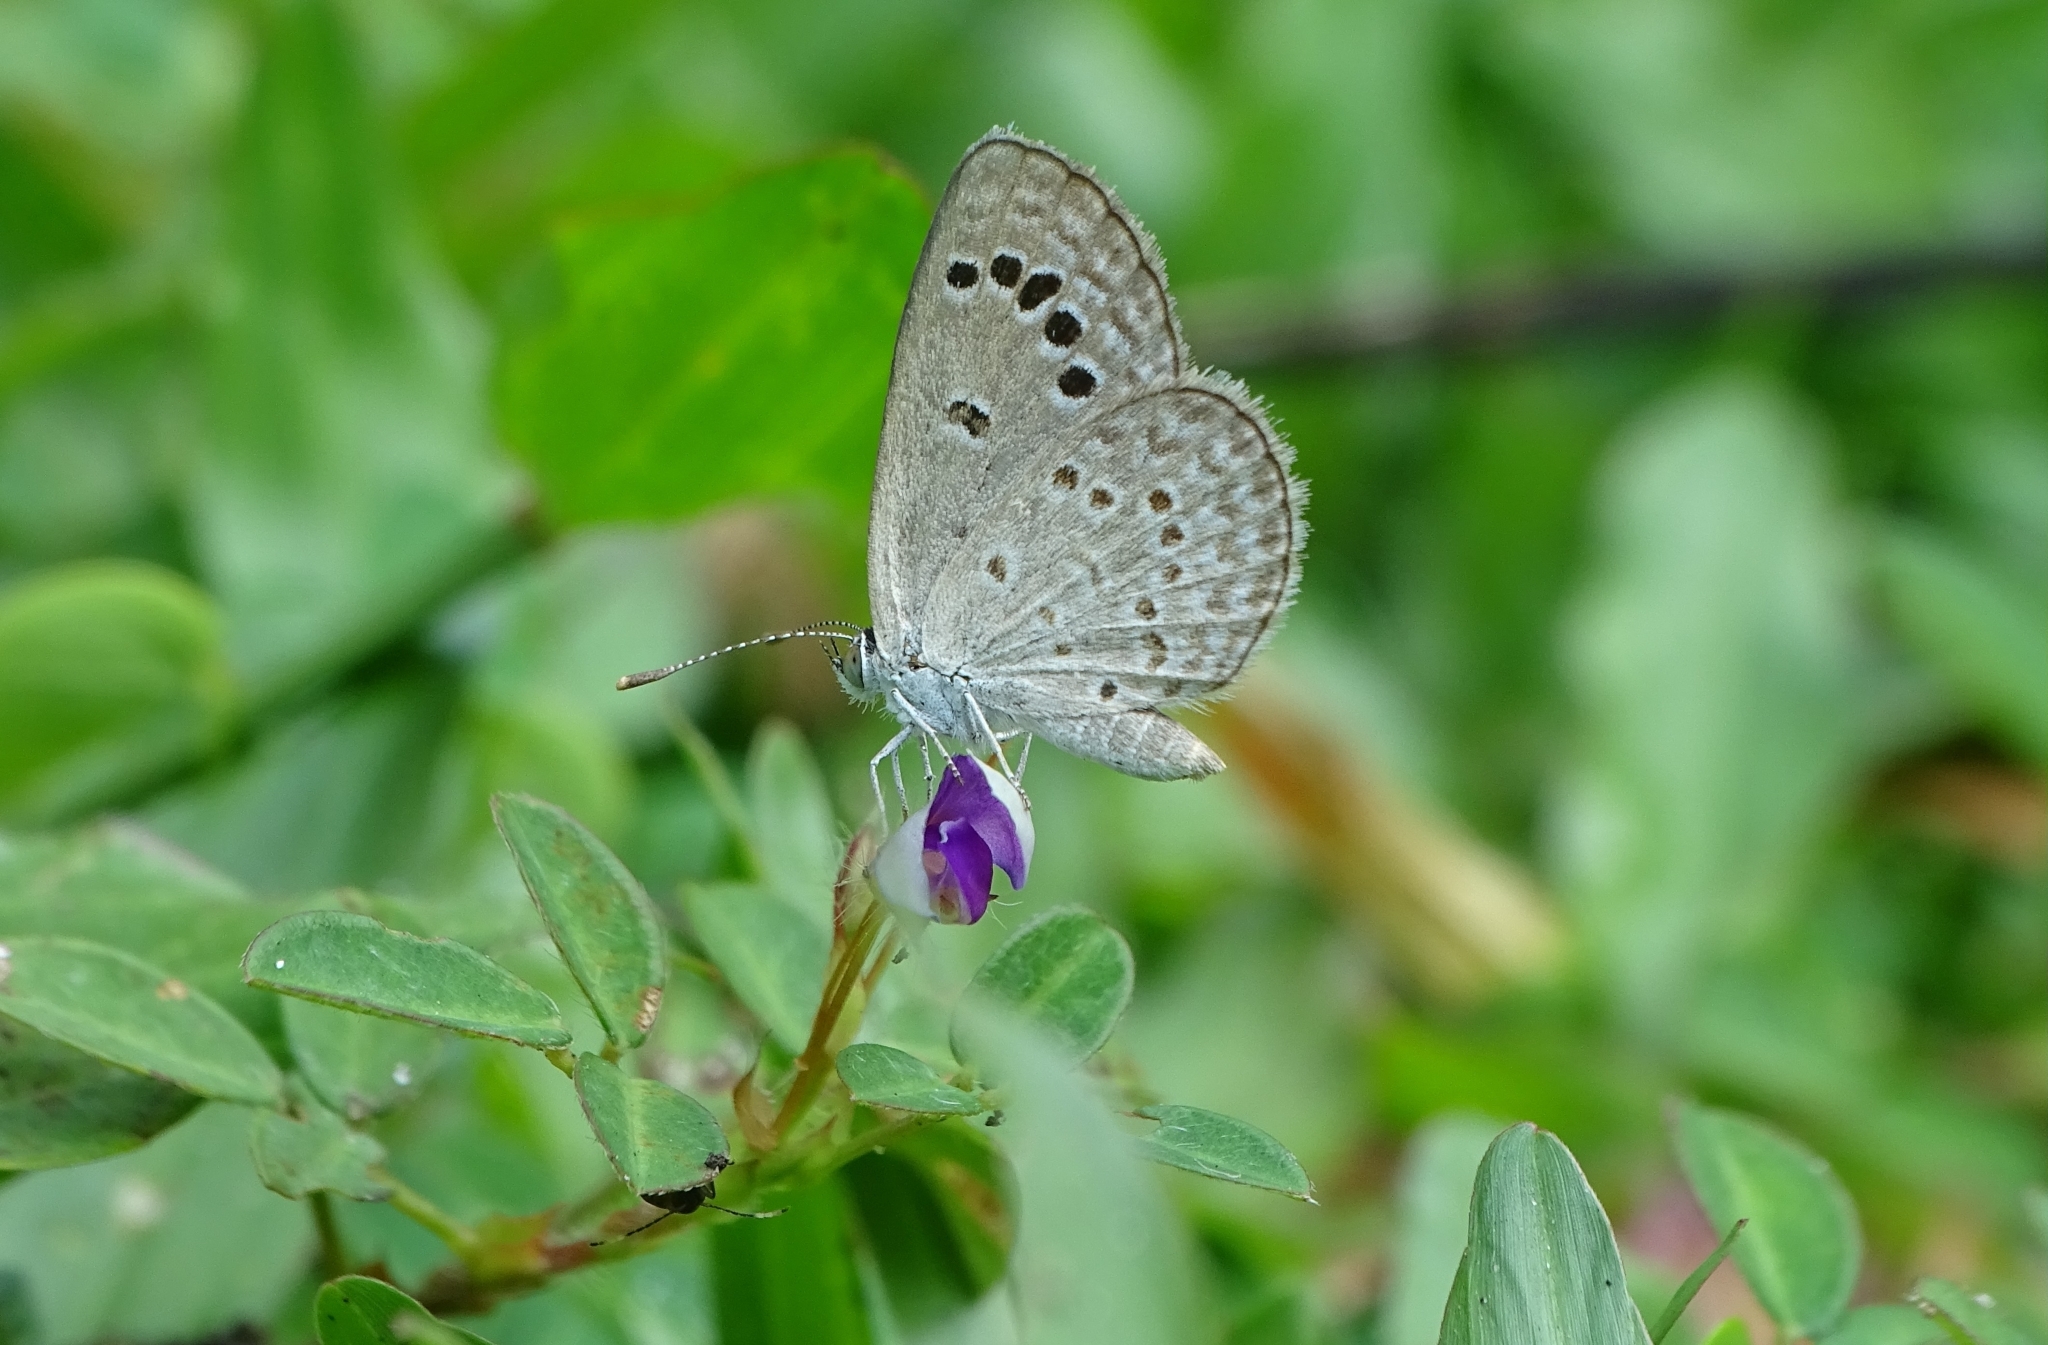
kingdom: Animalia
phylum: Arthropoda
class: Insecta
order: Lepidoptera
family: Lycaenidae
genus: Zizina
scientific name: Zizina otis
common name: Lesser grass blue
